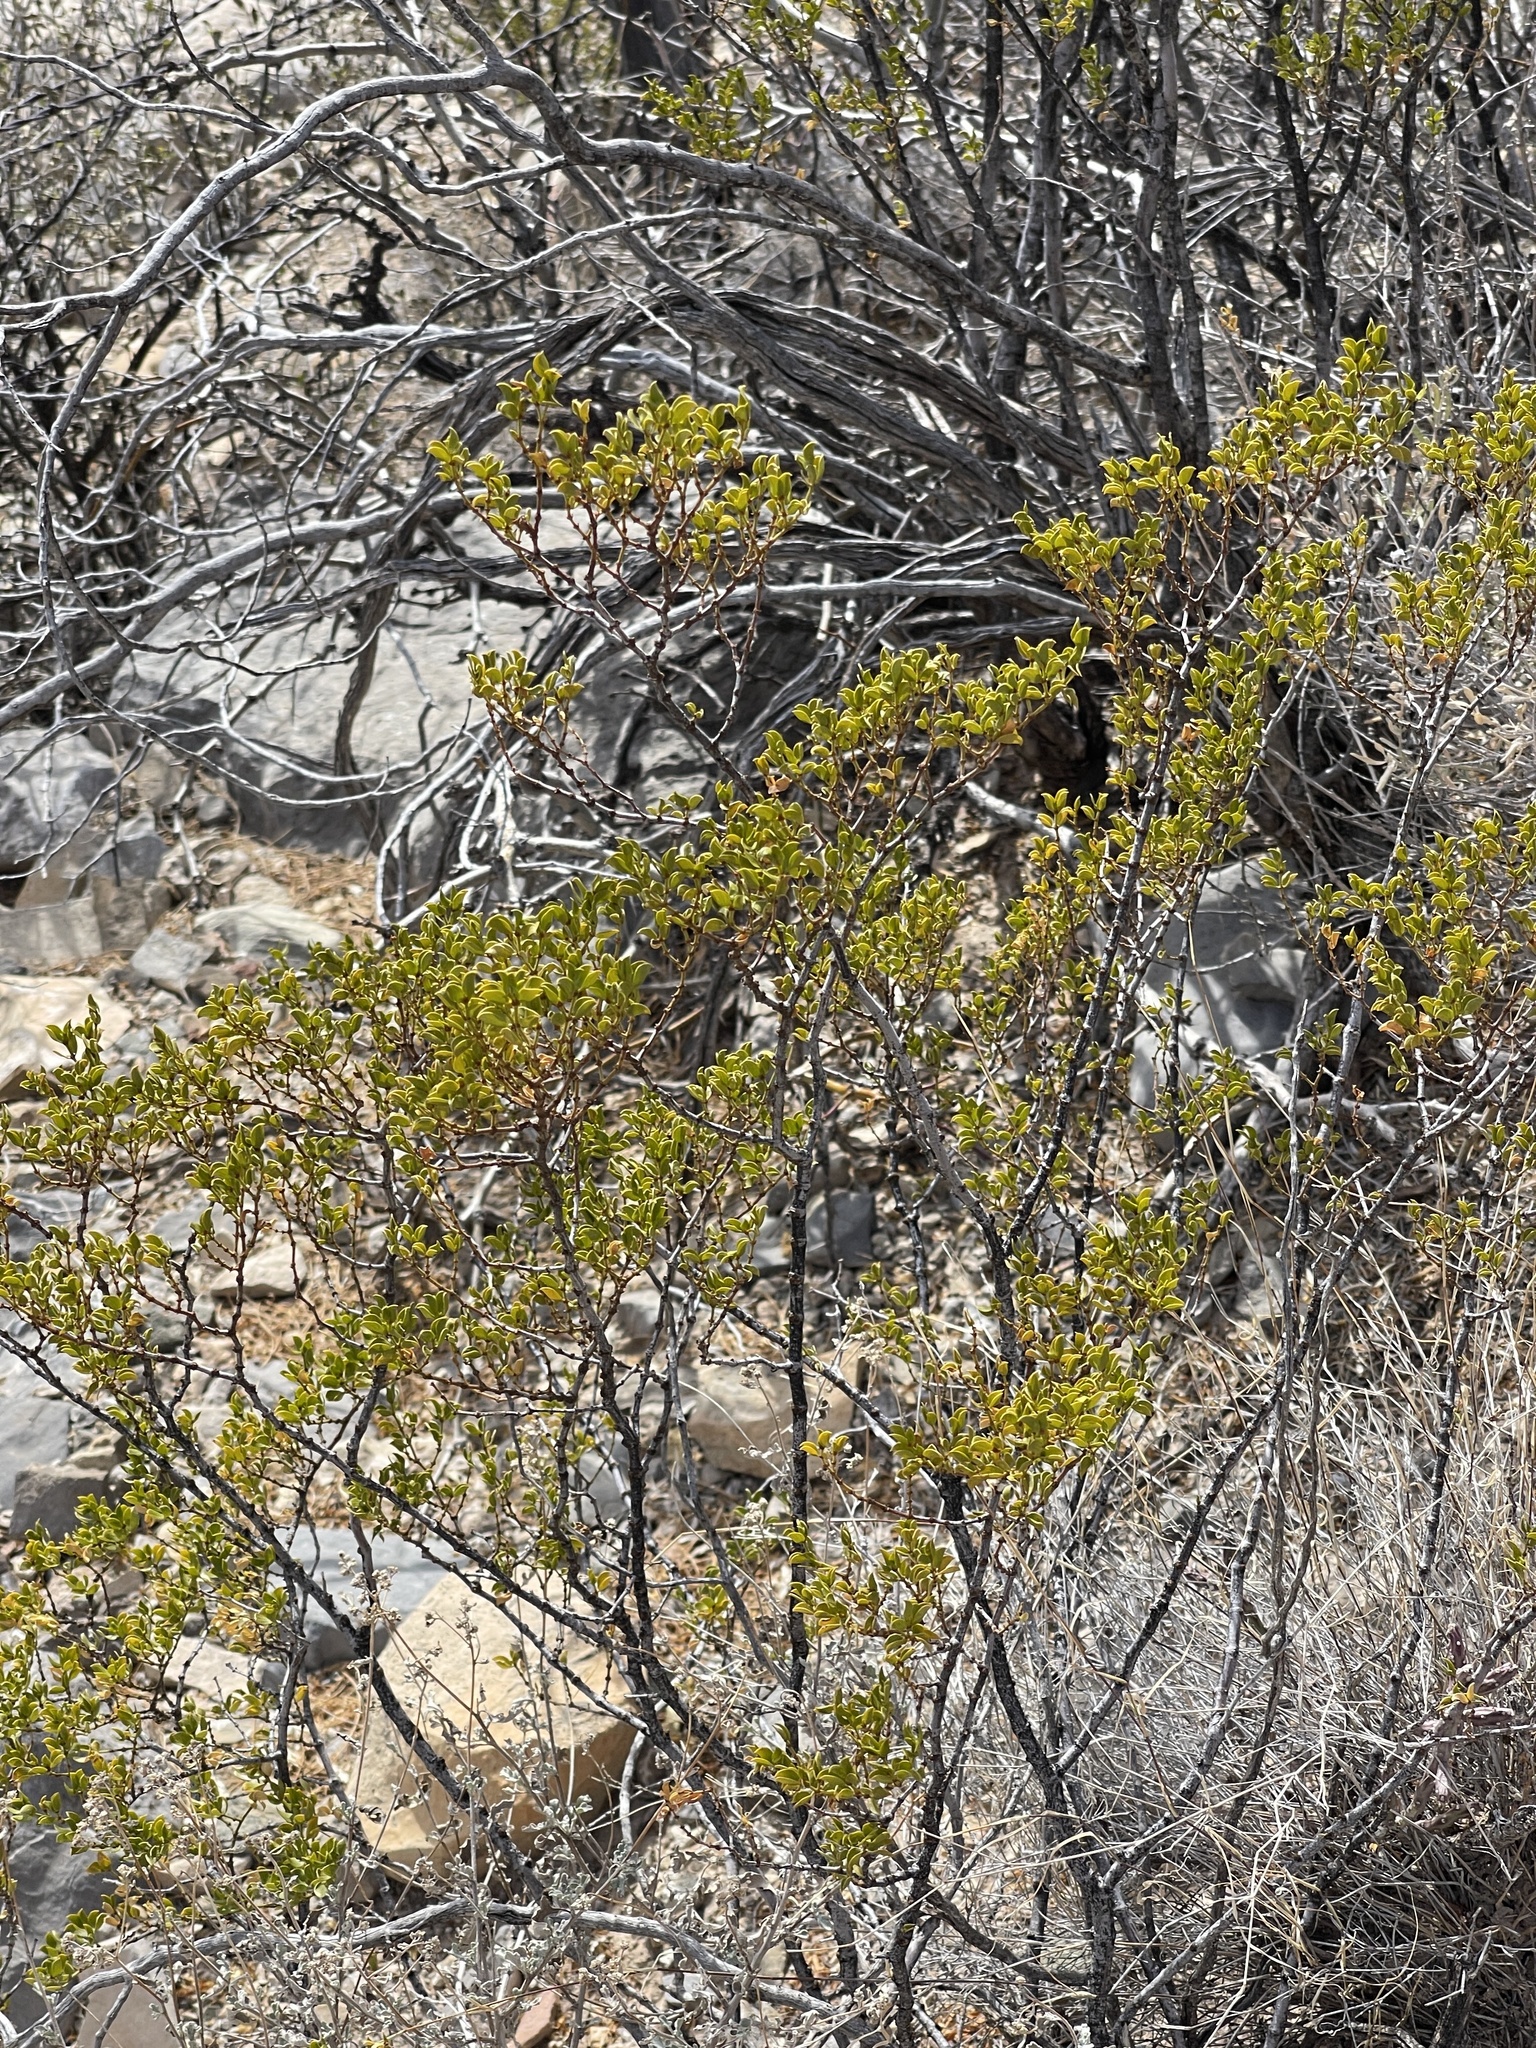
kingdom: Plantae
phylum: Tracheophyta
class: Magnoliopsida
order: Zygophyllales
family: Zygophyllaceae
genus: Larrea
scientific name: Larrea tridentata
